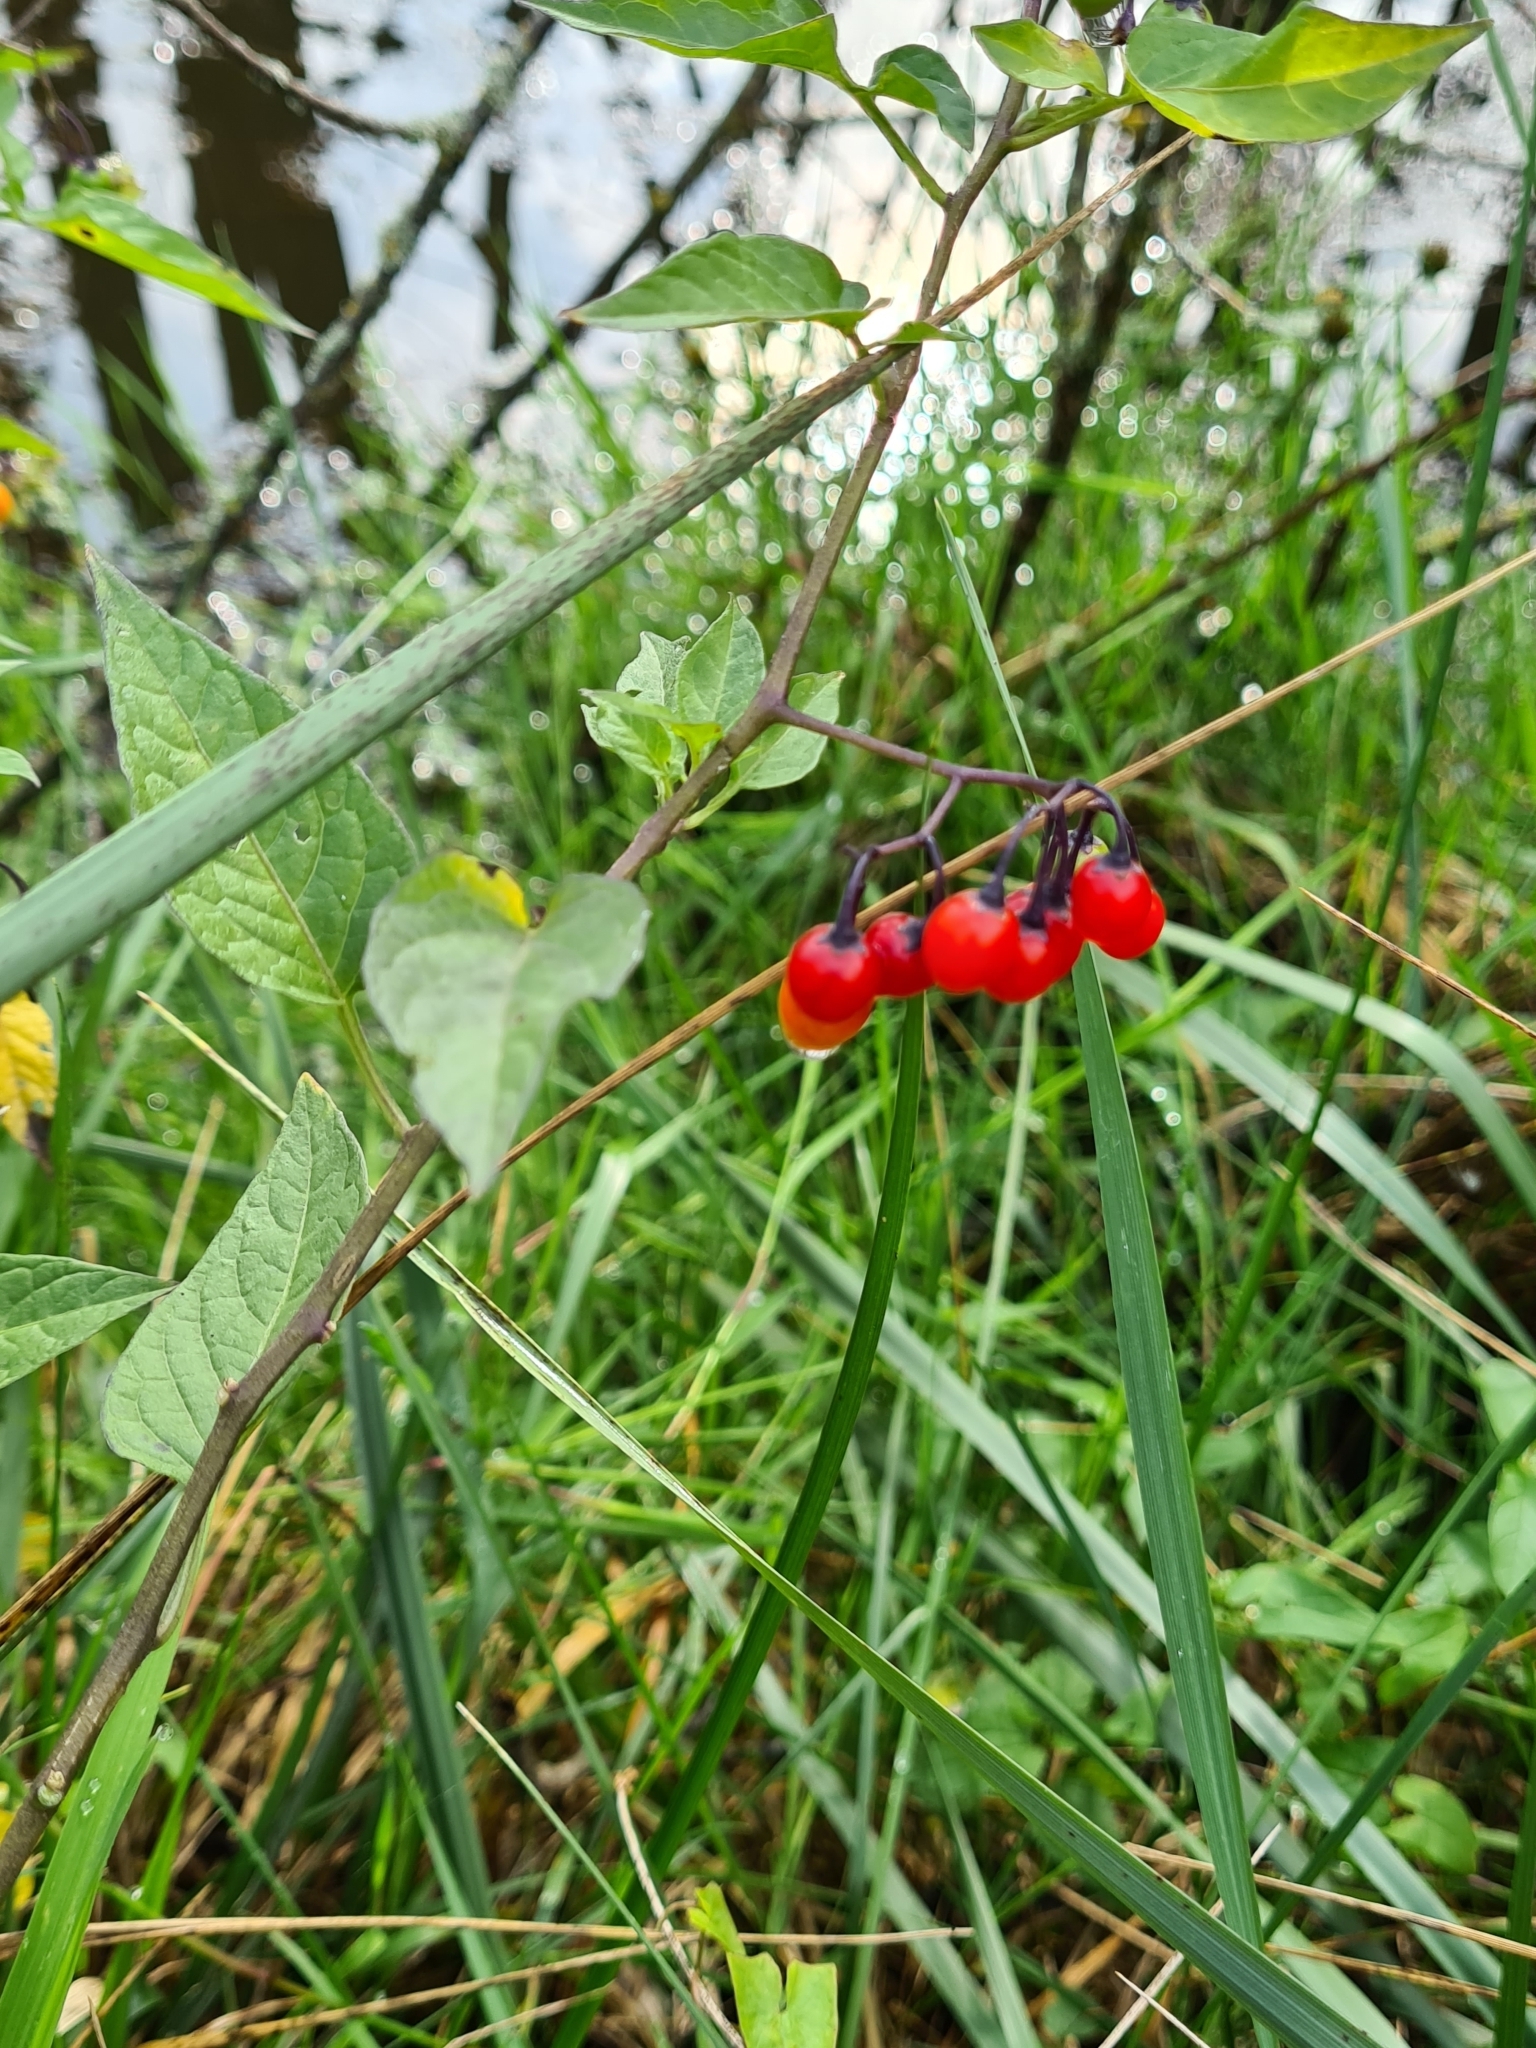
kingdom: Plantae
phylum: Tracheophyta
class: Magnoliopsida
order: Solanales
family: Solanaceae
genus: Solanum
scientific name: Solanum dulcamara
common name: Climbing nightshade
